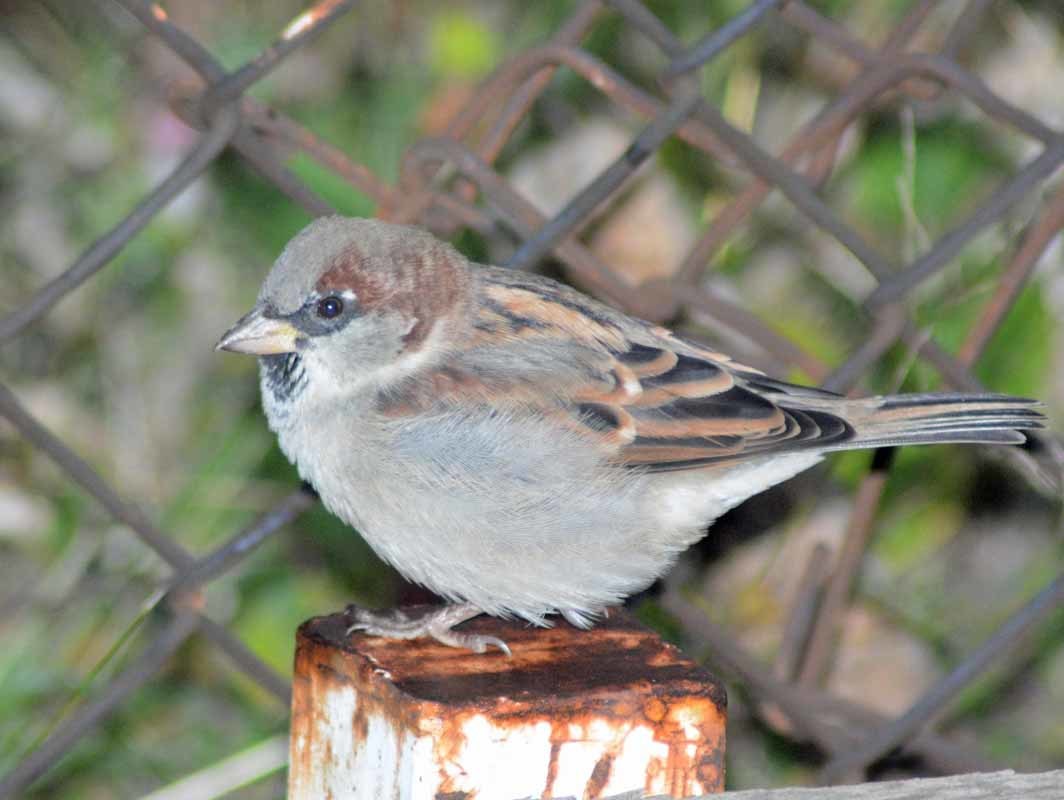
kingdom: Animalia
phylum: Chordata
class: Aves
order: Passeriformes
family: Passeridae
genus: Passer
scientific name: Passer domesticus
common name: House sparrow
